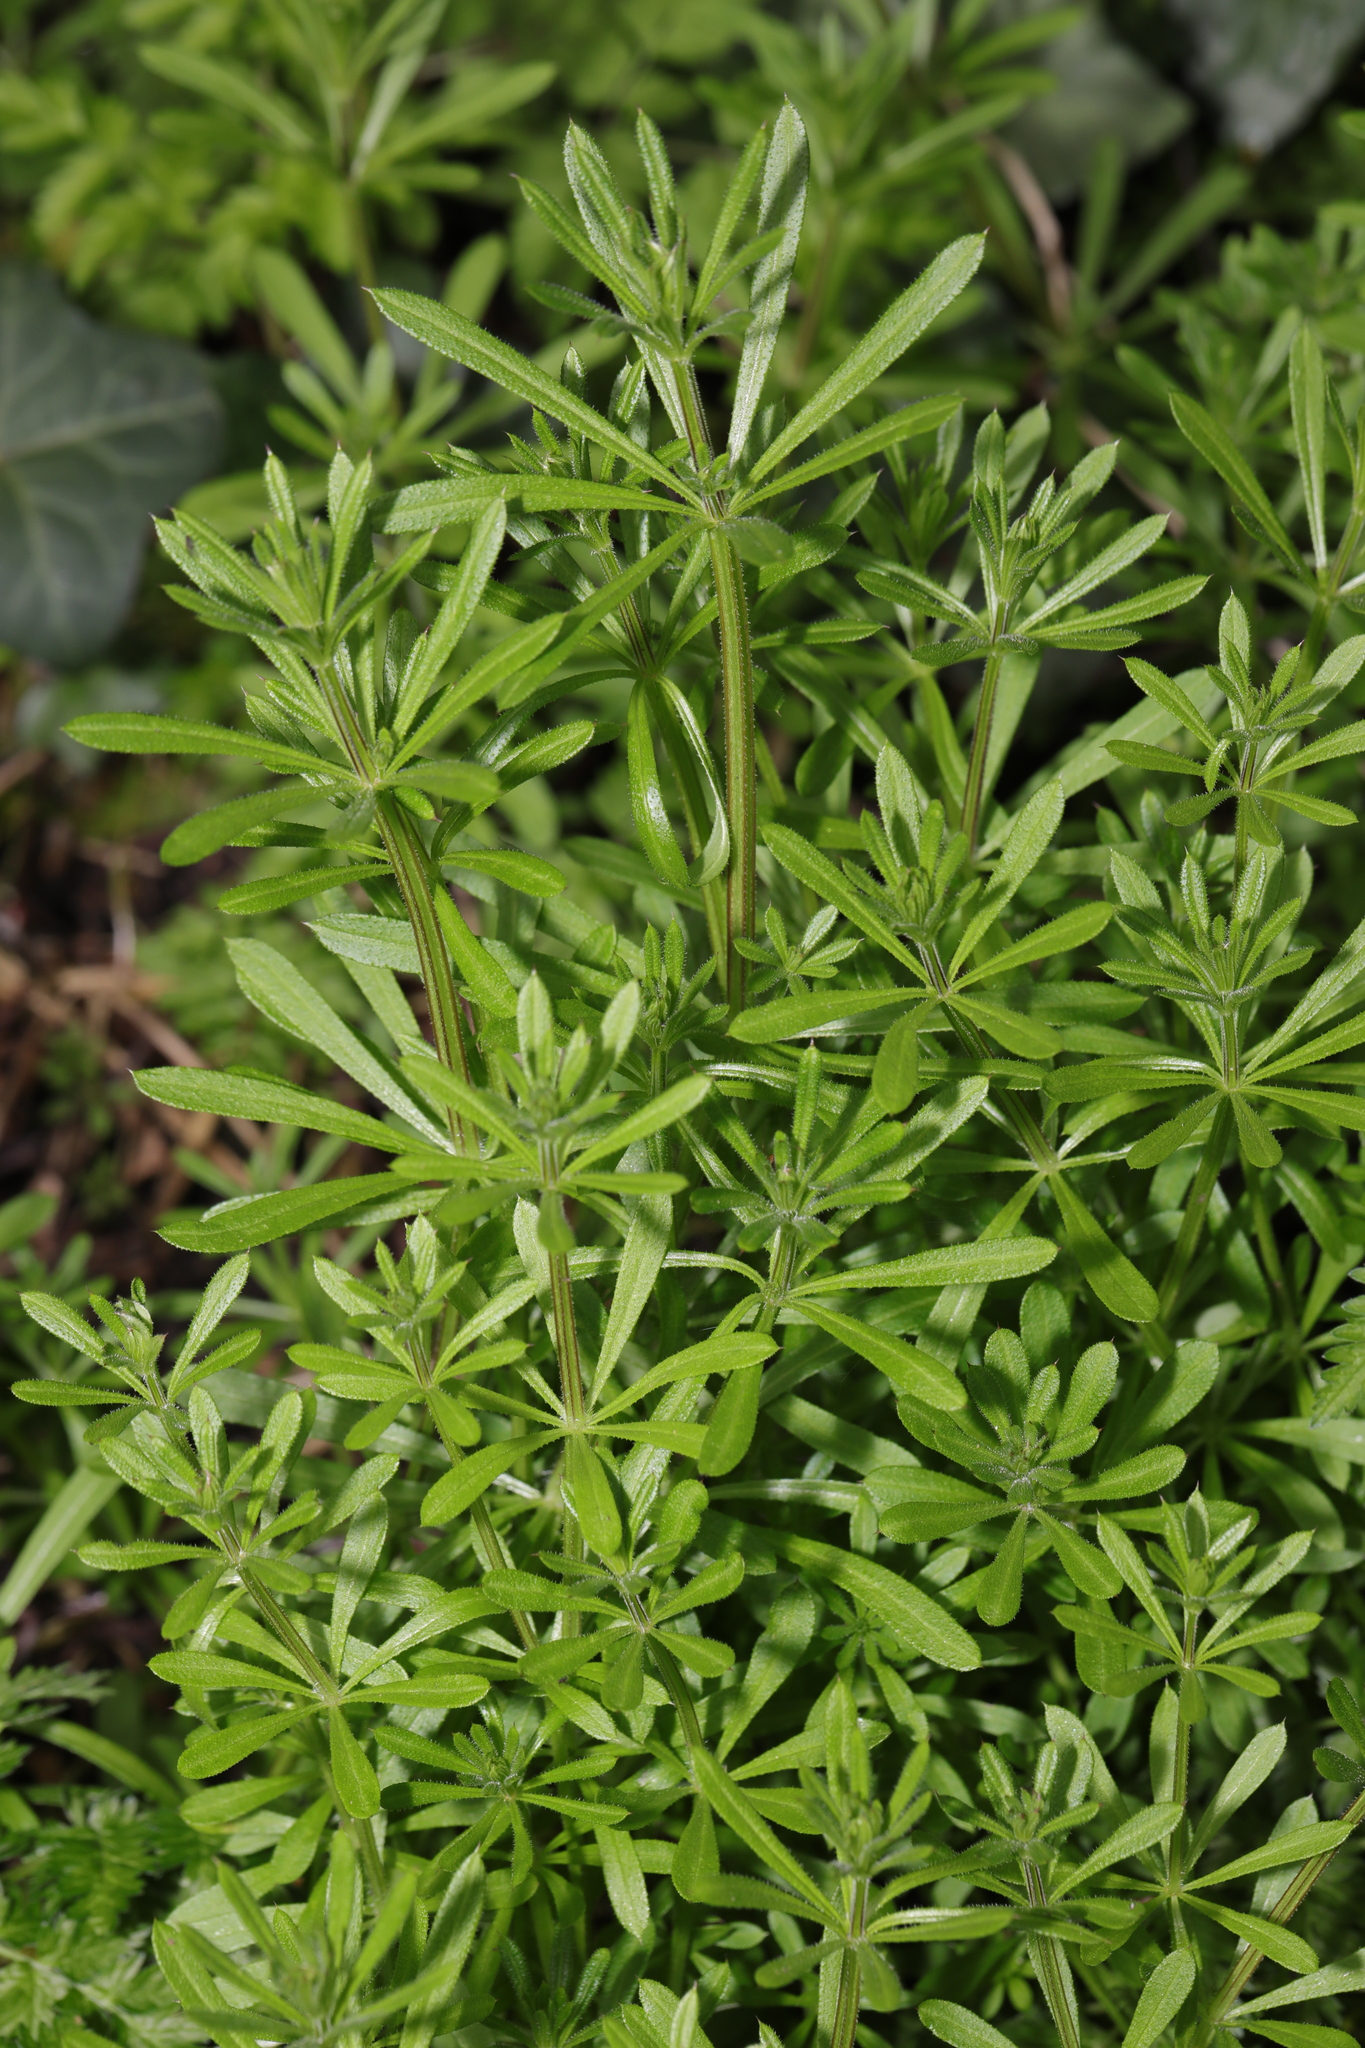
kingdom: Plantae
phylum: Tracheophyta
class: Magnoliopsida
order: Gentianales
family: Rubiaceae
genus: Galium
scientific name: Galium aparine
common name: Cleavers
